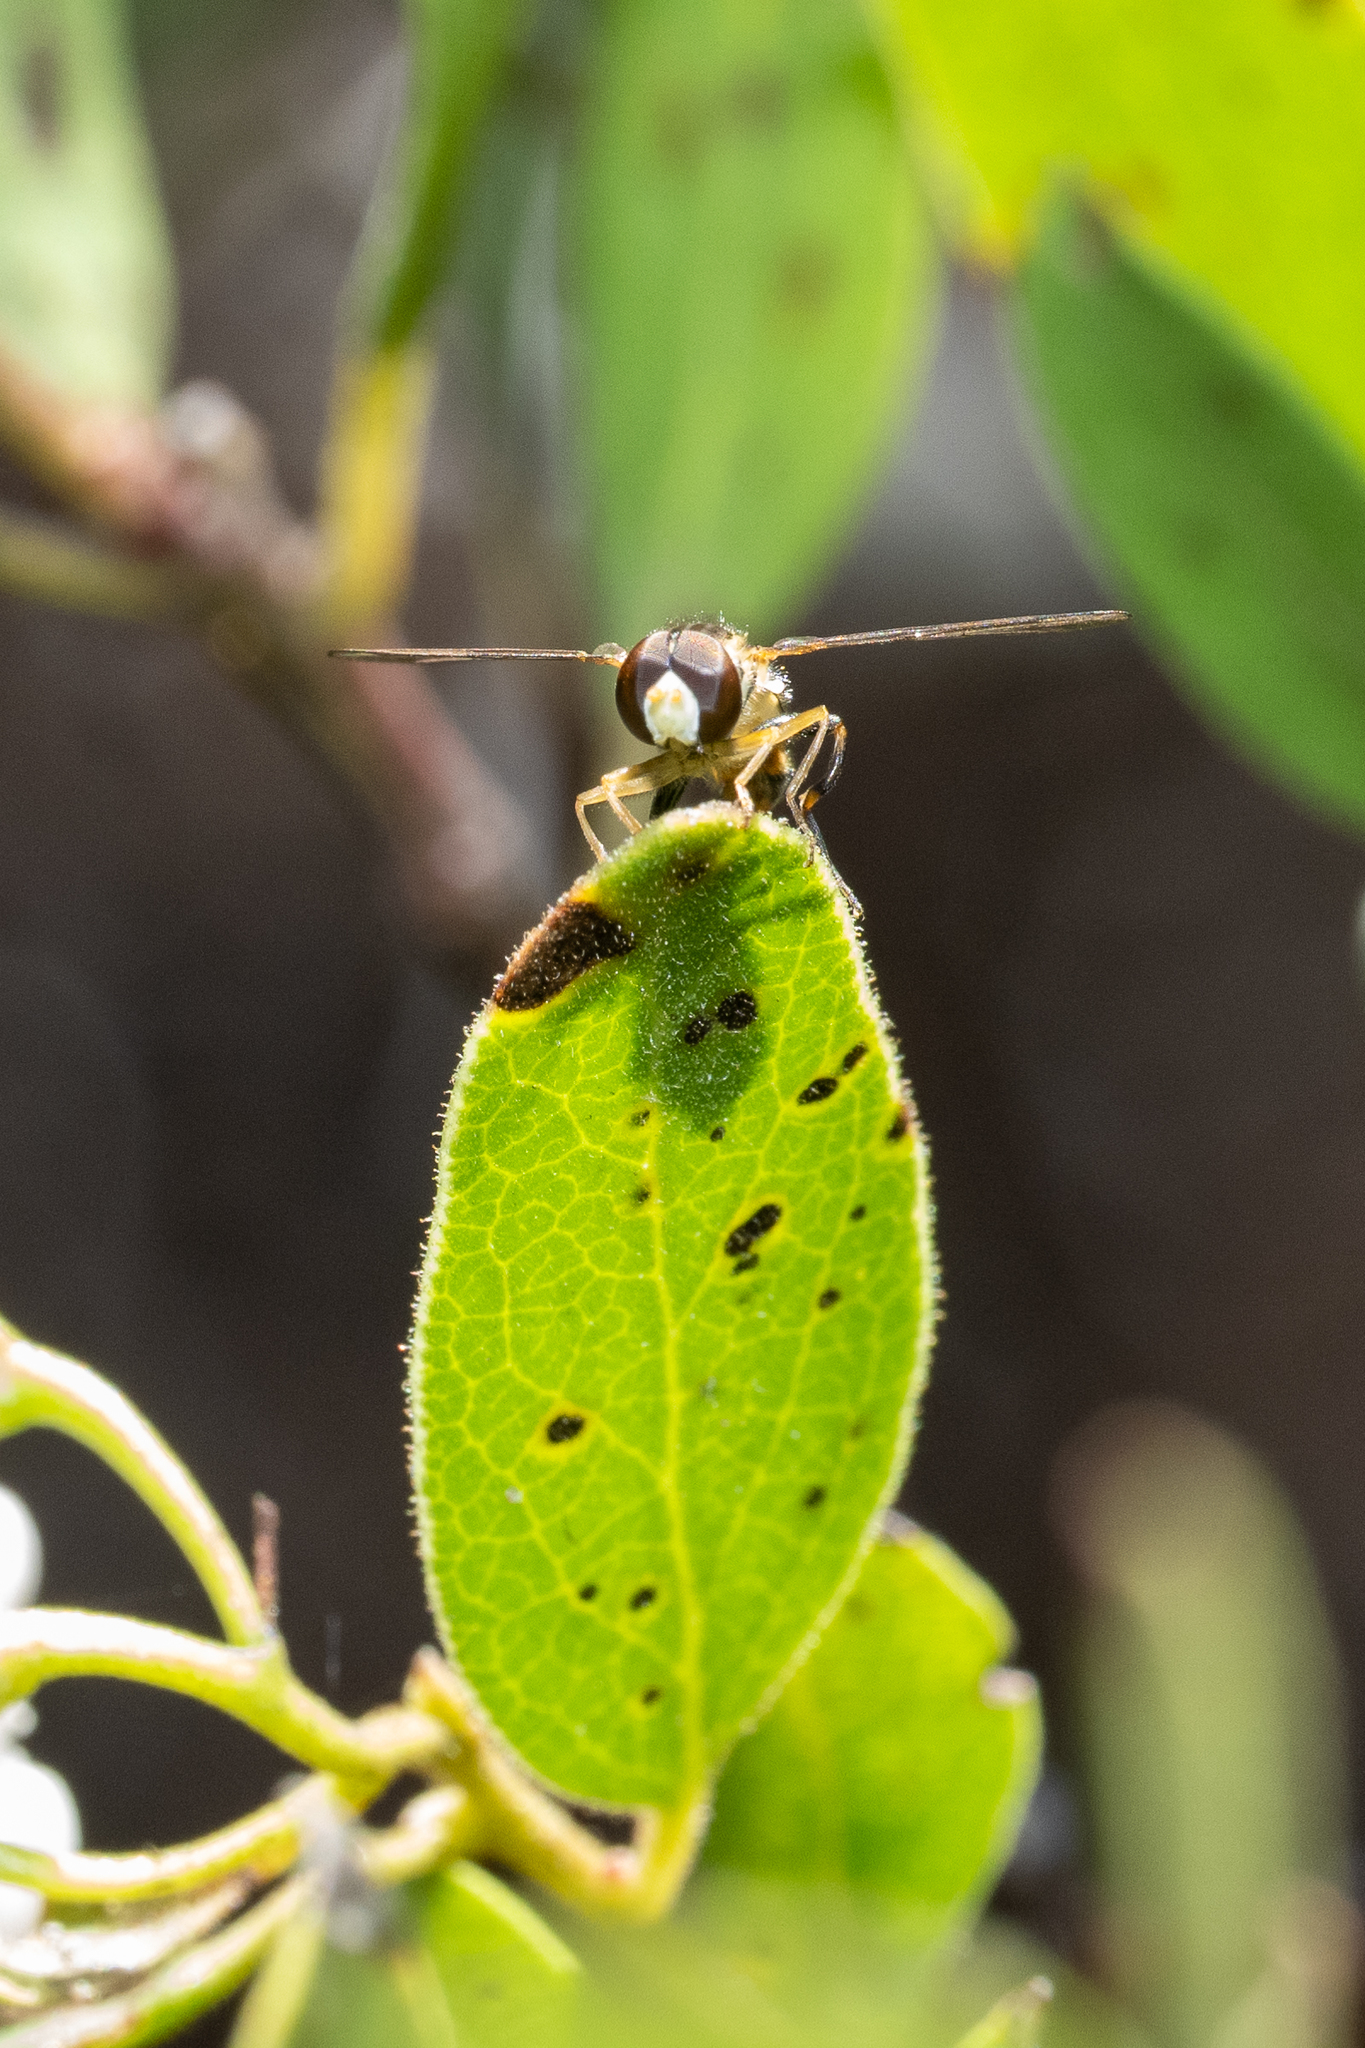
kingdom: Animalia
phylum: Arthropoda
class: Insecta
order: Diptera
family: Syrphidae
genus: Toxomerus
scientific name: Toxomerus occidentalis
